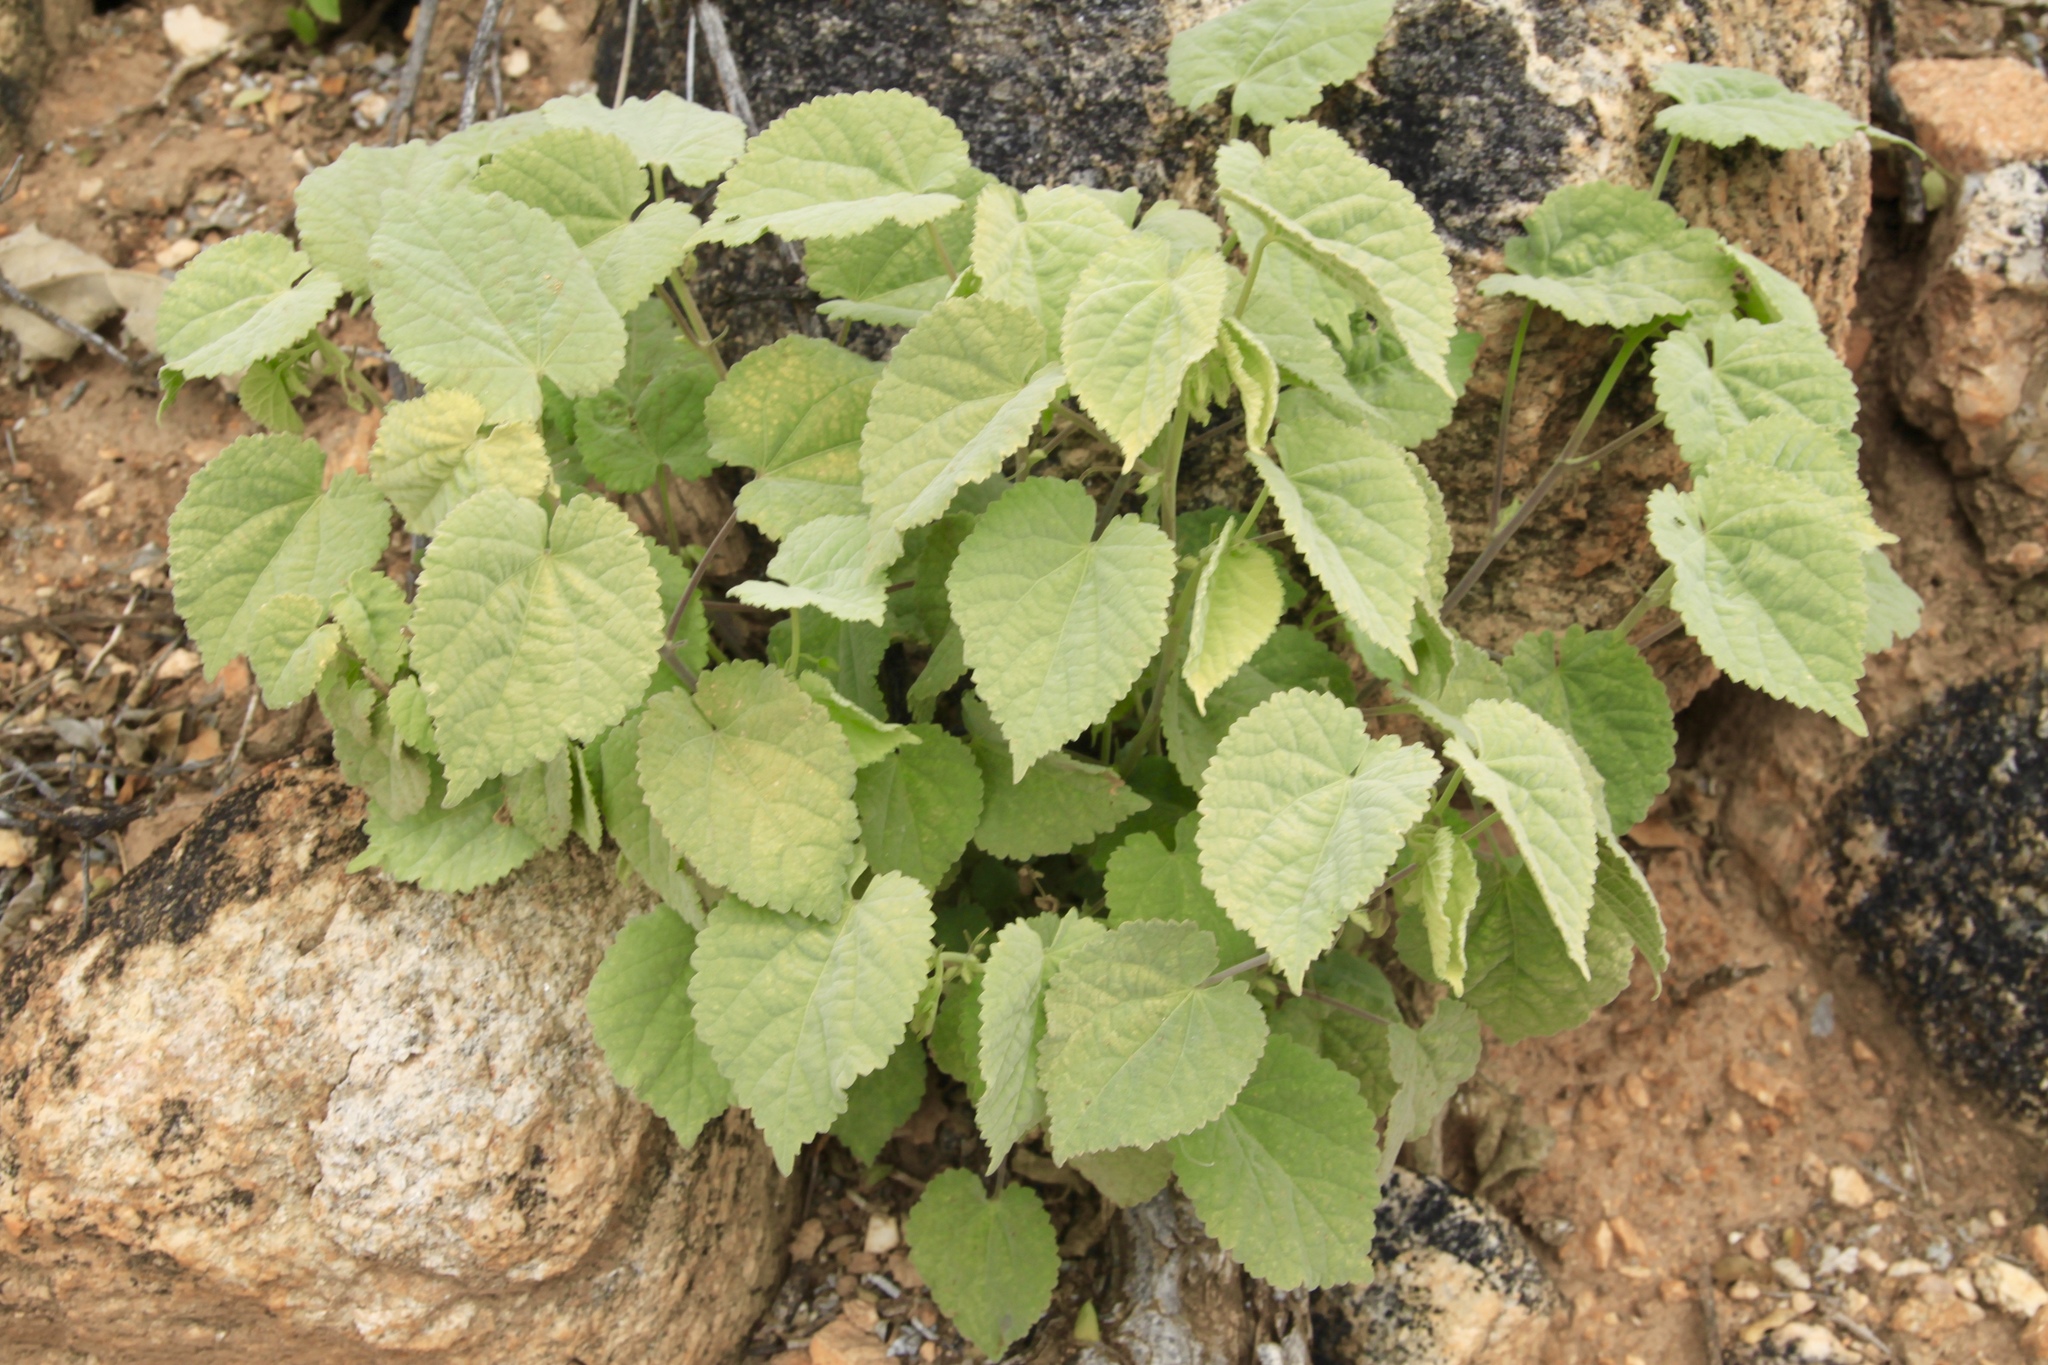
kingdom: Plantae
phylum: Tracheophyta
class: Magnoliopsida
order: Malvales
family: Malvaceae
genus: Herissantia
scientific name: Herissantia crispa
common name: Bladdermallow
